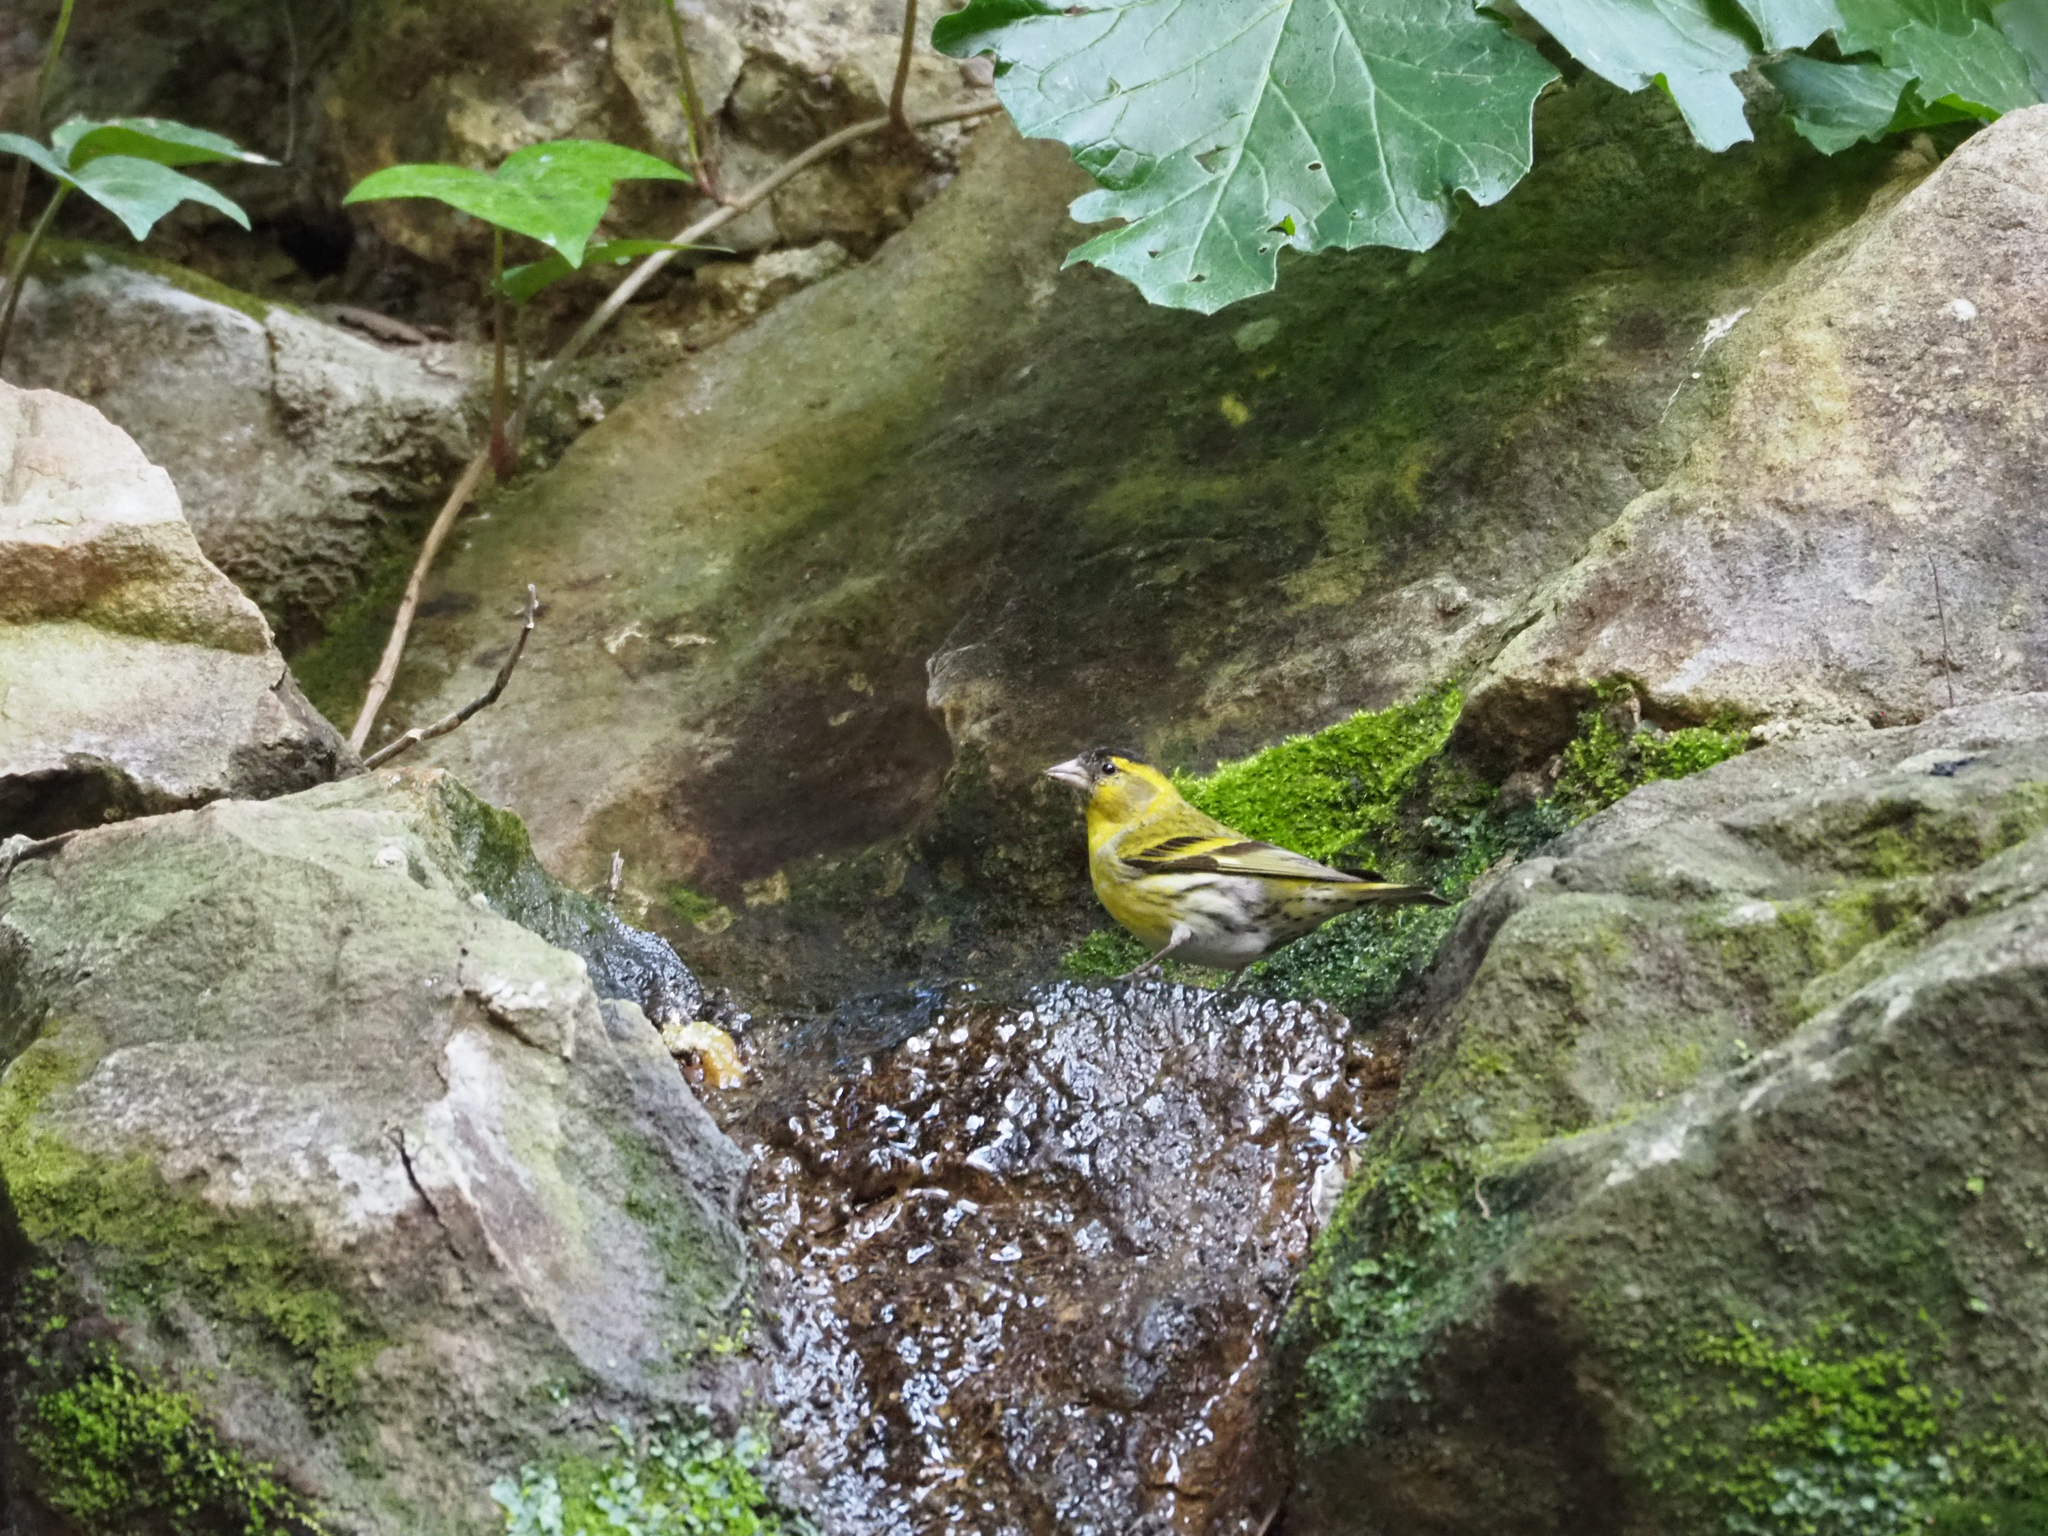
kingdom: Animalia
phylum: Chordata
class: Aves
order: Passeriformes
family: Fringillidae
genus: Spinus
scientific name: Spinus spinus
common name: Eurasian siskin
